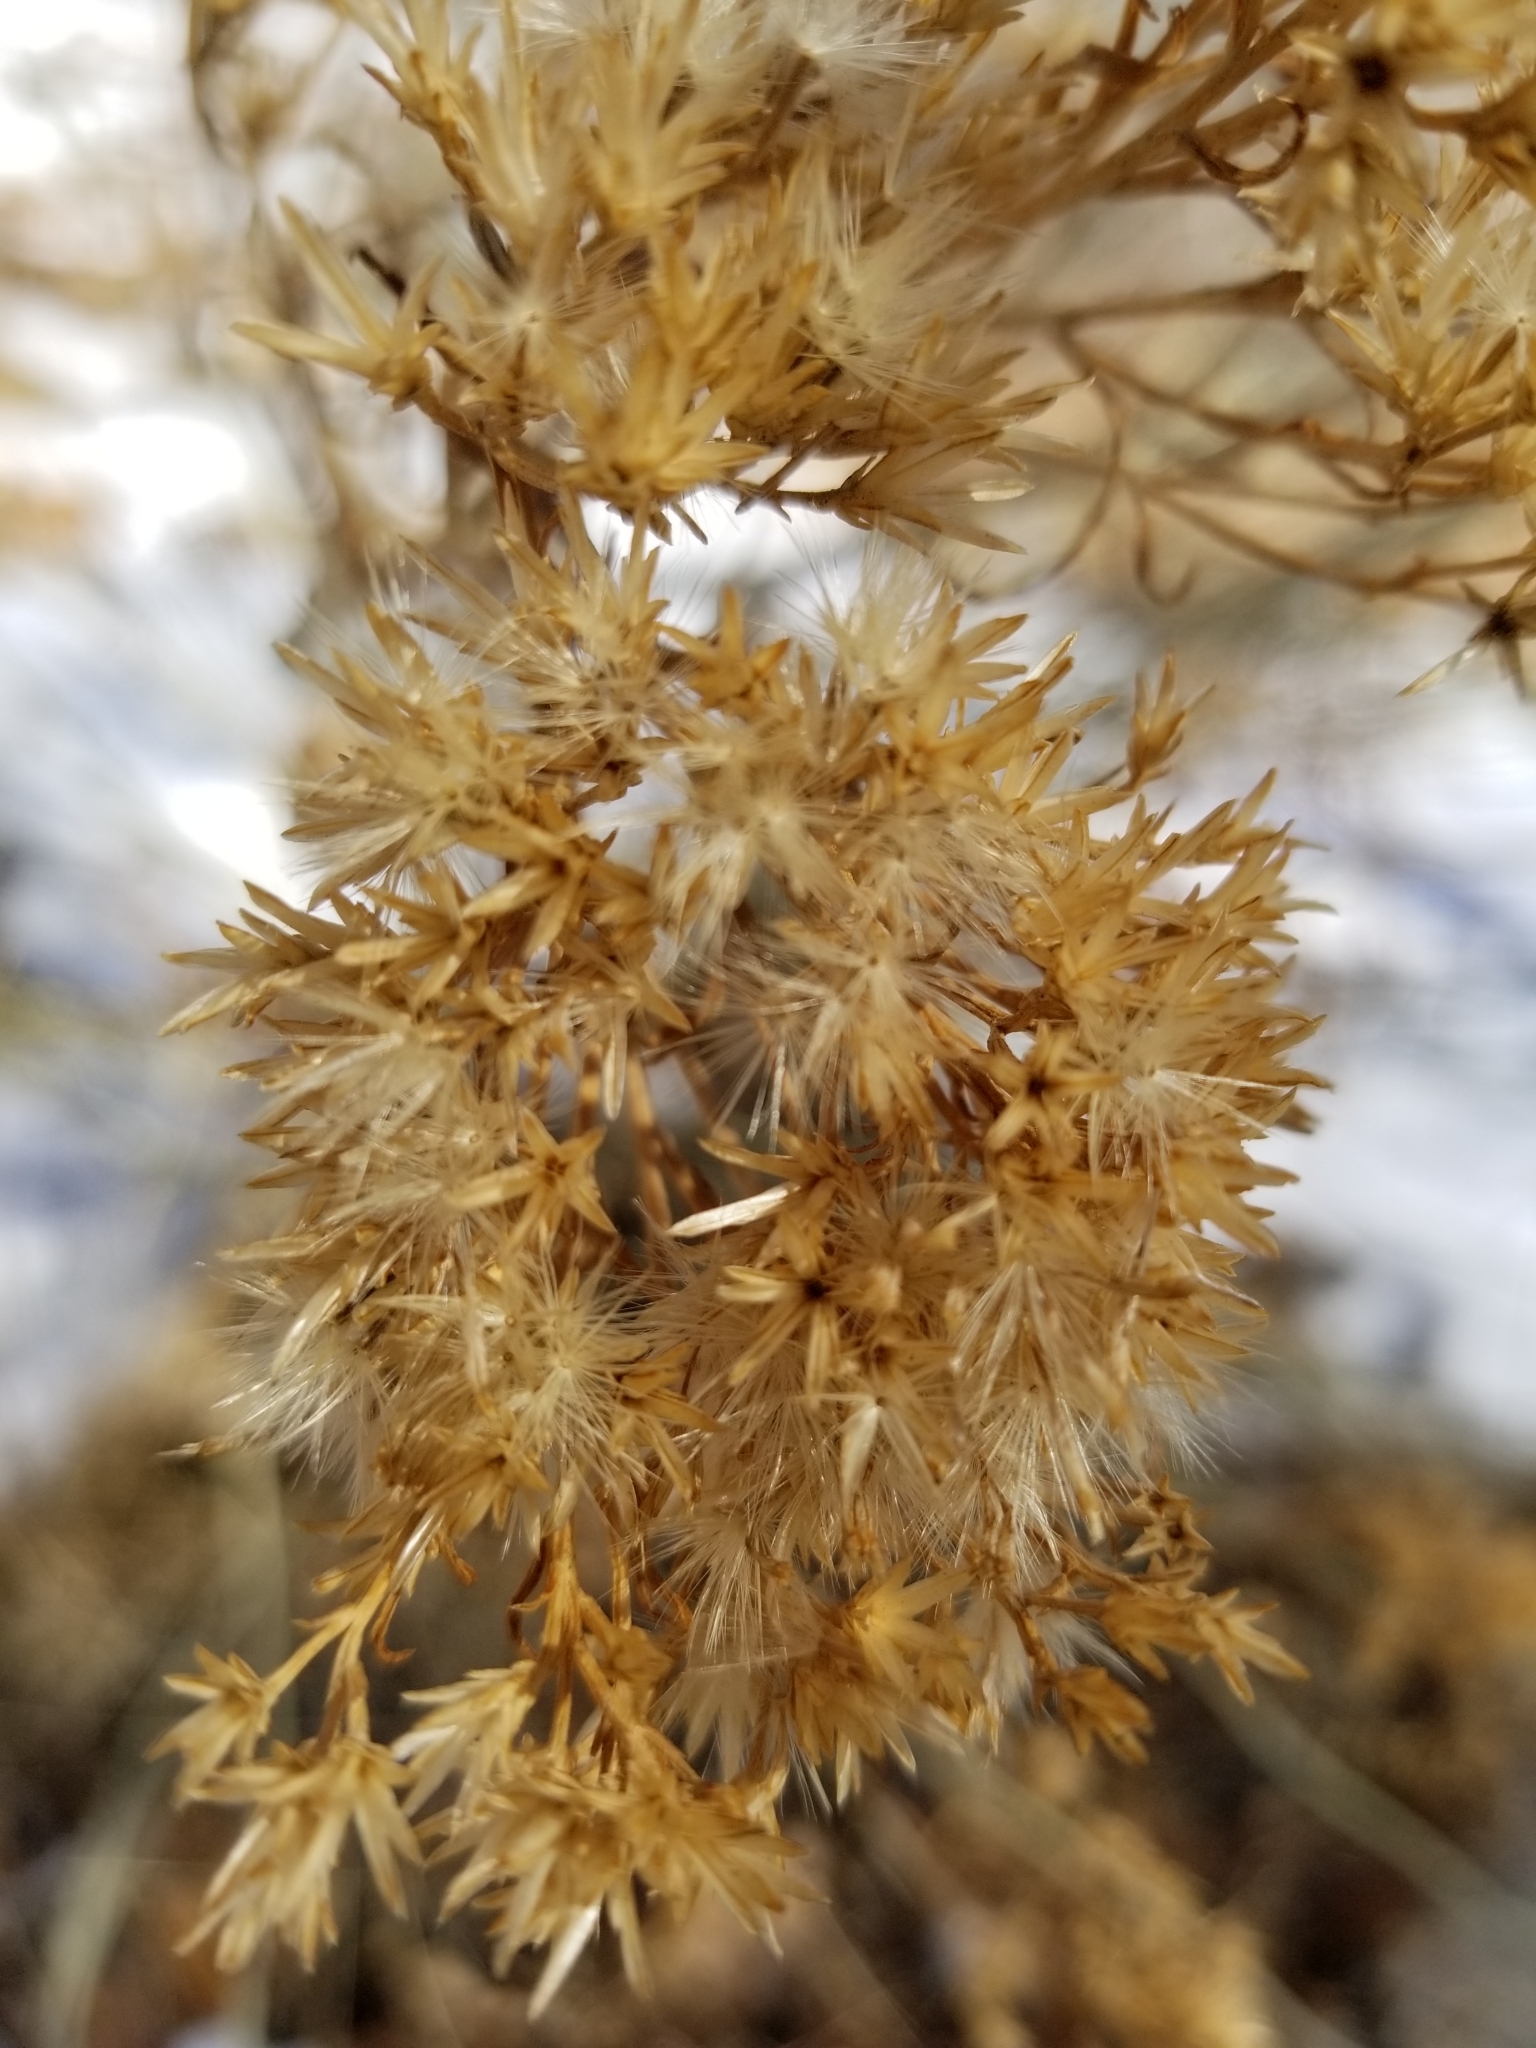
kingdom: Plantae
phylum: Tracheophyta
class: Magnoliopsida
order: Asterales
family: Asteraceae
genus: Ericameria
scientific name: Ericameria nauseosa
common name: Rubber rabbitbrush
